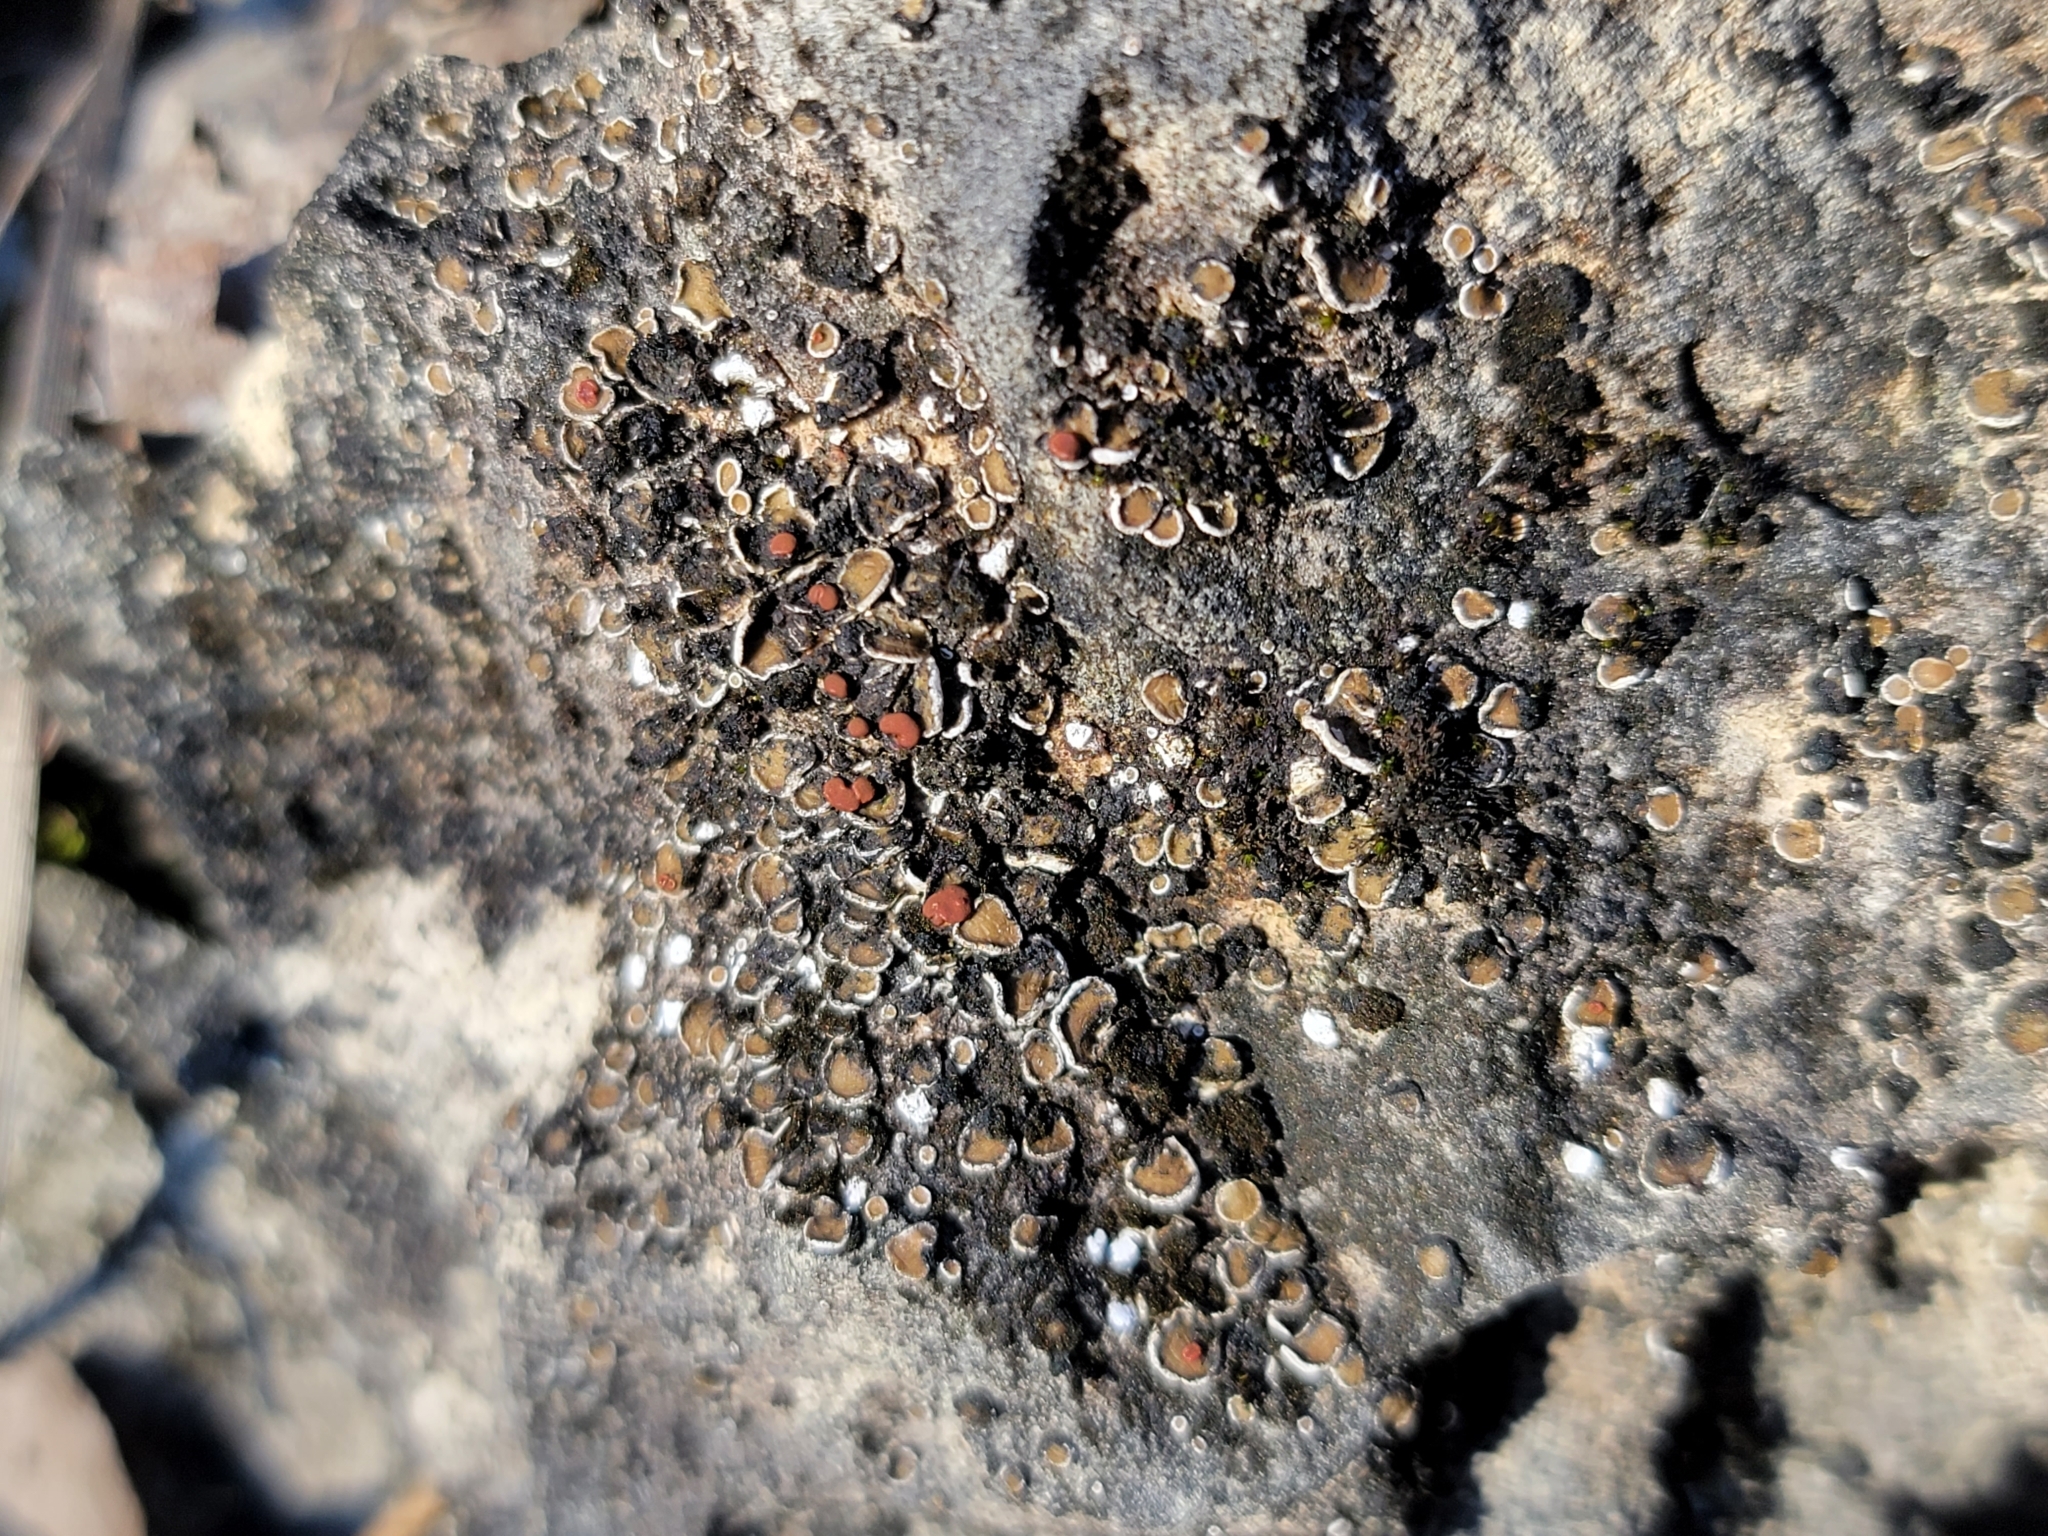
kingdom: Fungi
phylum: Ascomycota
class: Lecanoromycetes
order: Lecanorales
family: Psoraceae
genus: Psora
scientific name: Psora pseudorussellii
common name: Bordered scale lichen
